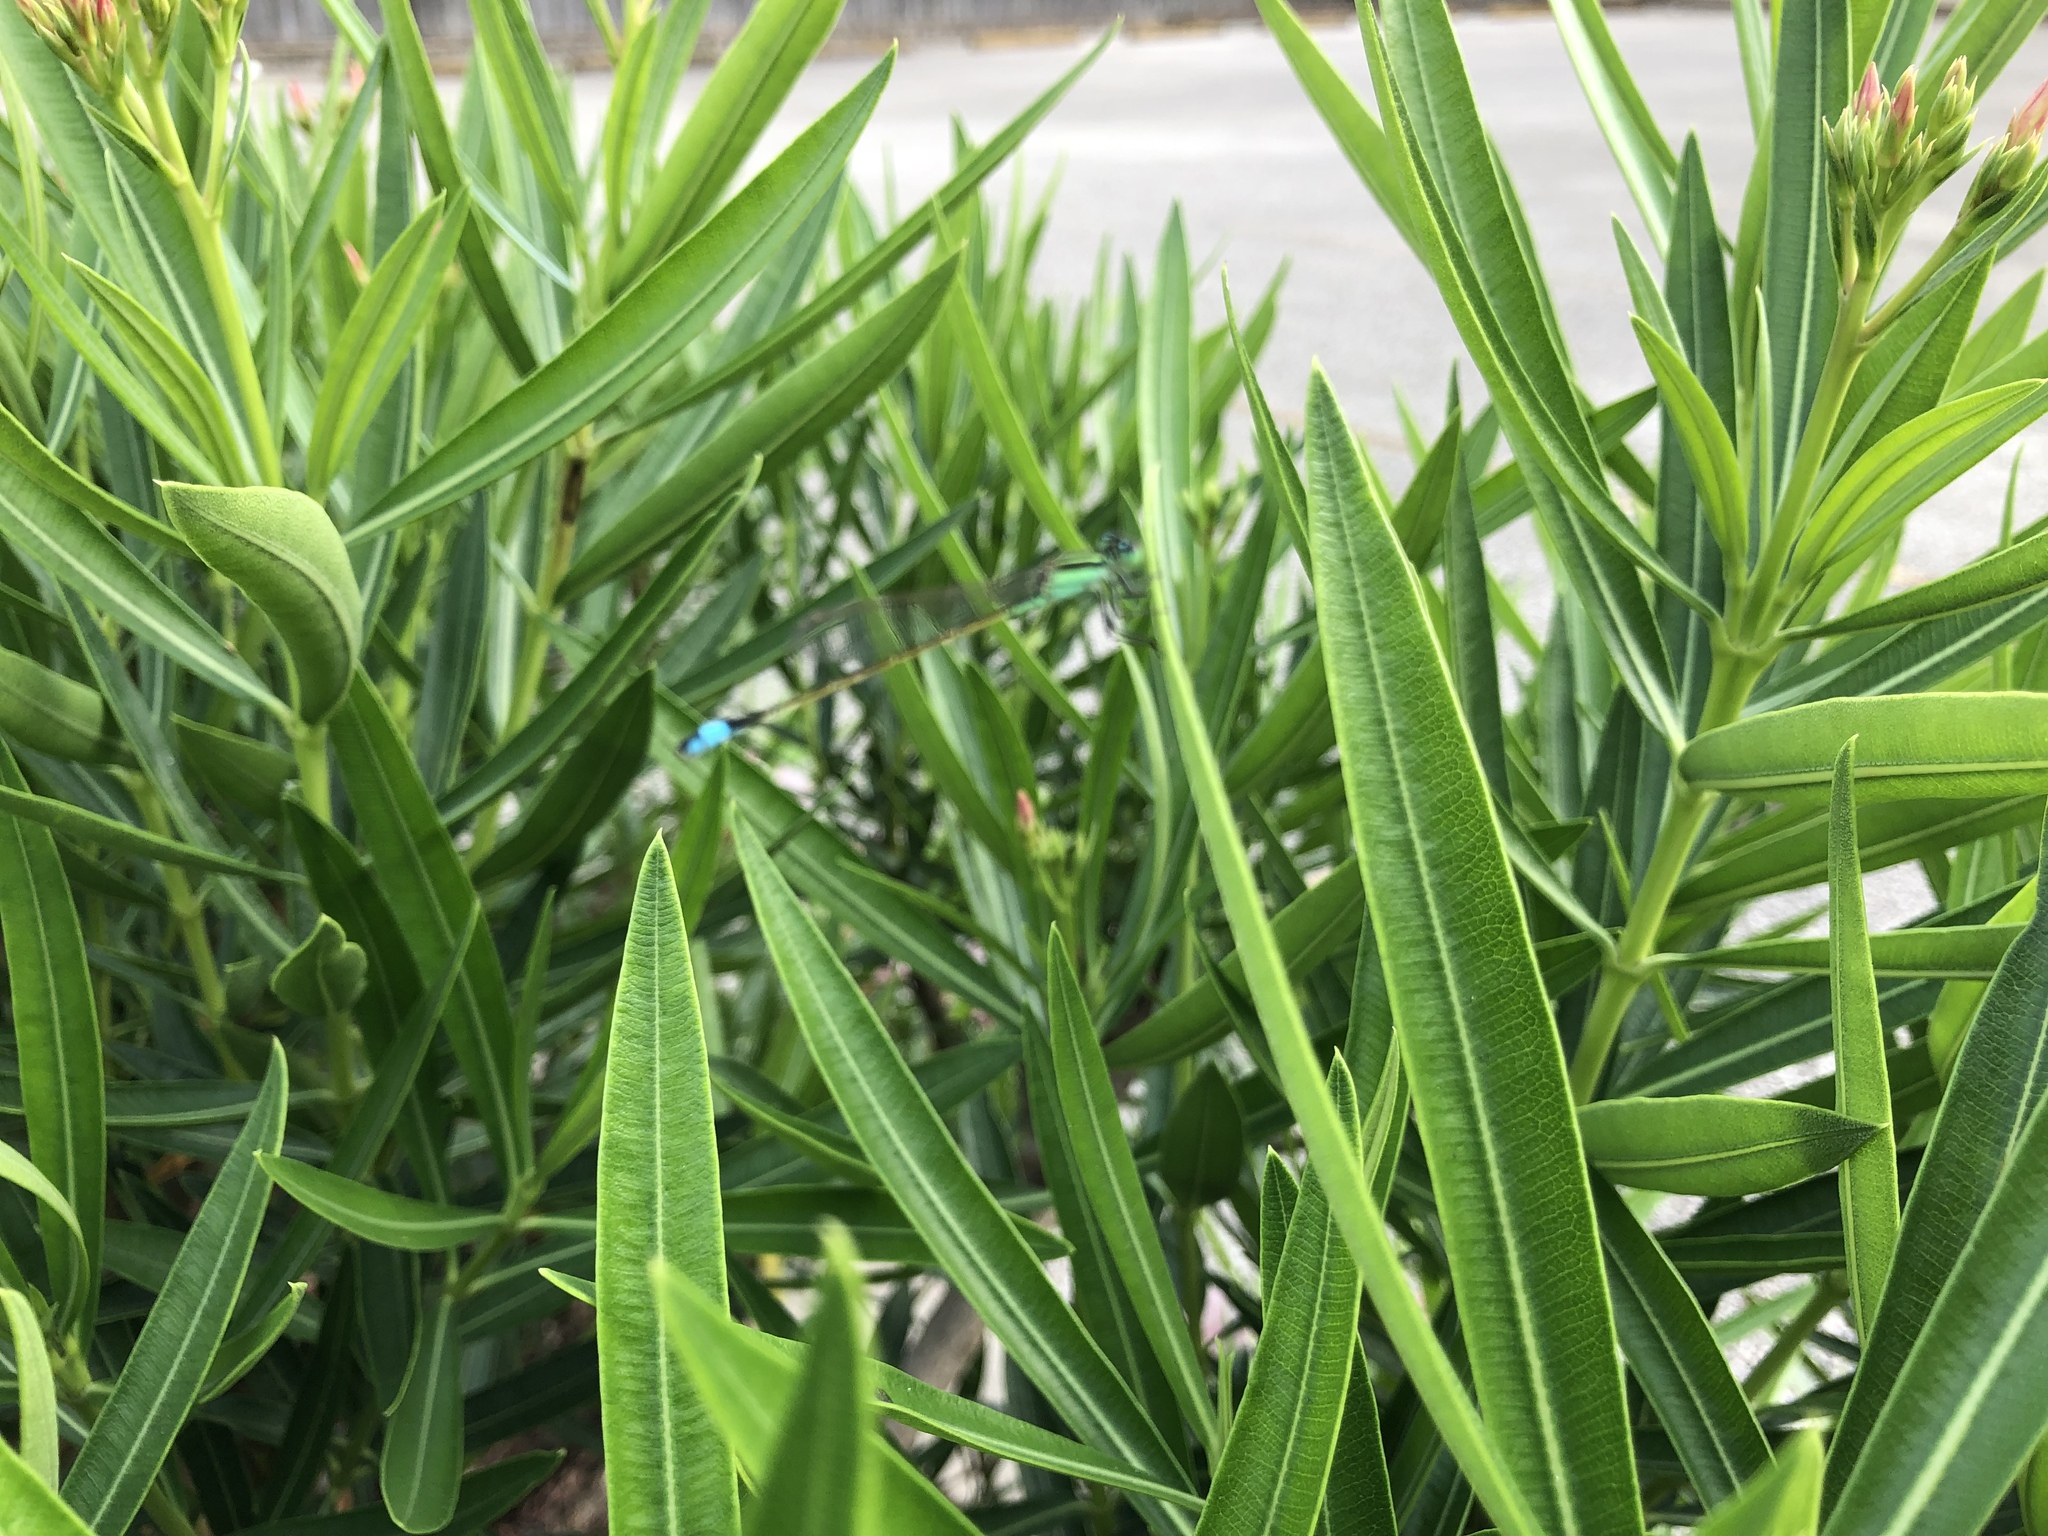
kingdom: Animalia
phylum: Arthropoda
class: Insecta
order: Odonata
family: Coenagrionidae
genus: Ischnura
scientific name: Ischnura ramburii
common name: Rambur's forktail
